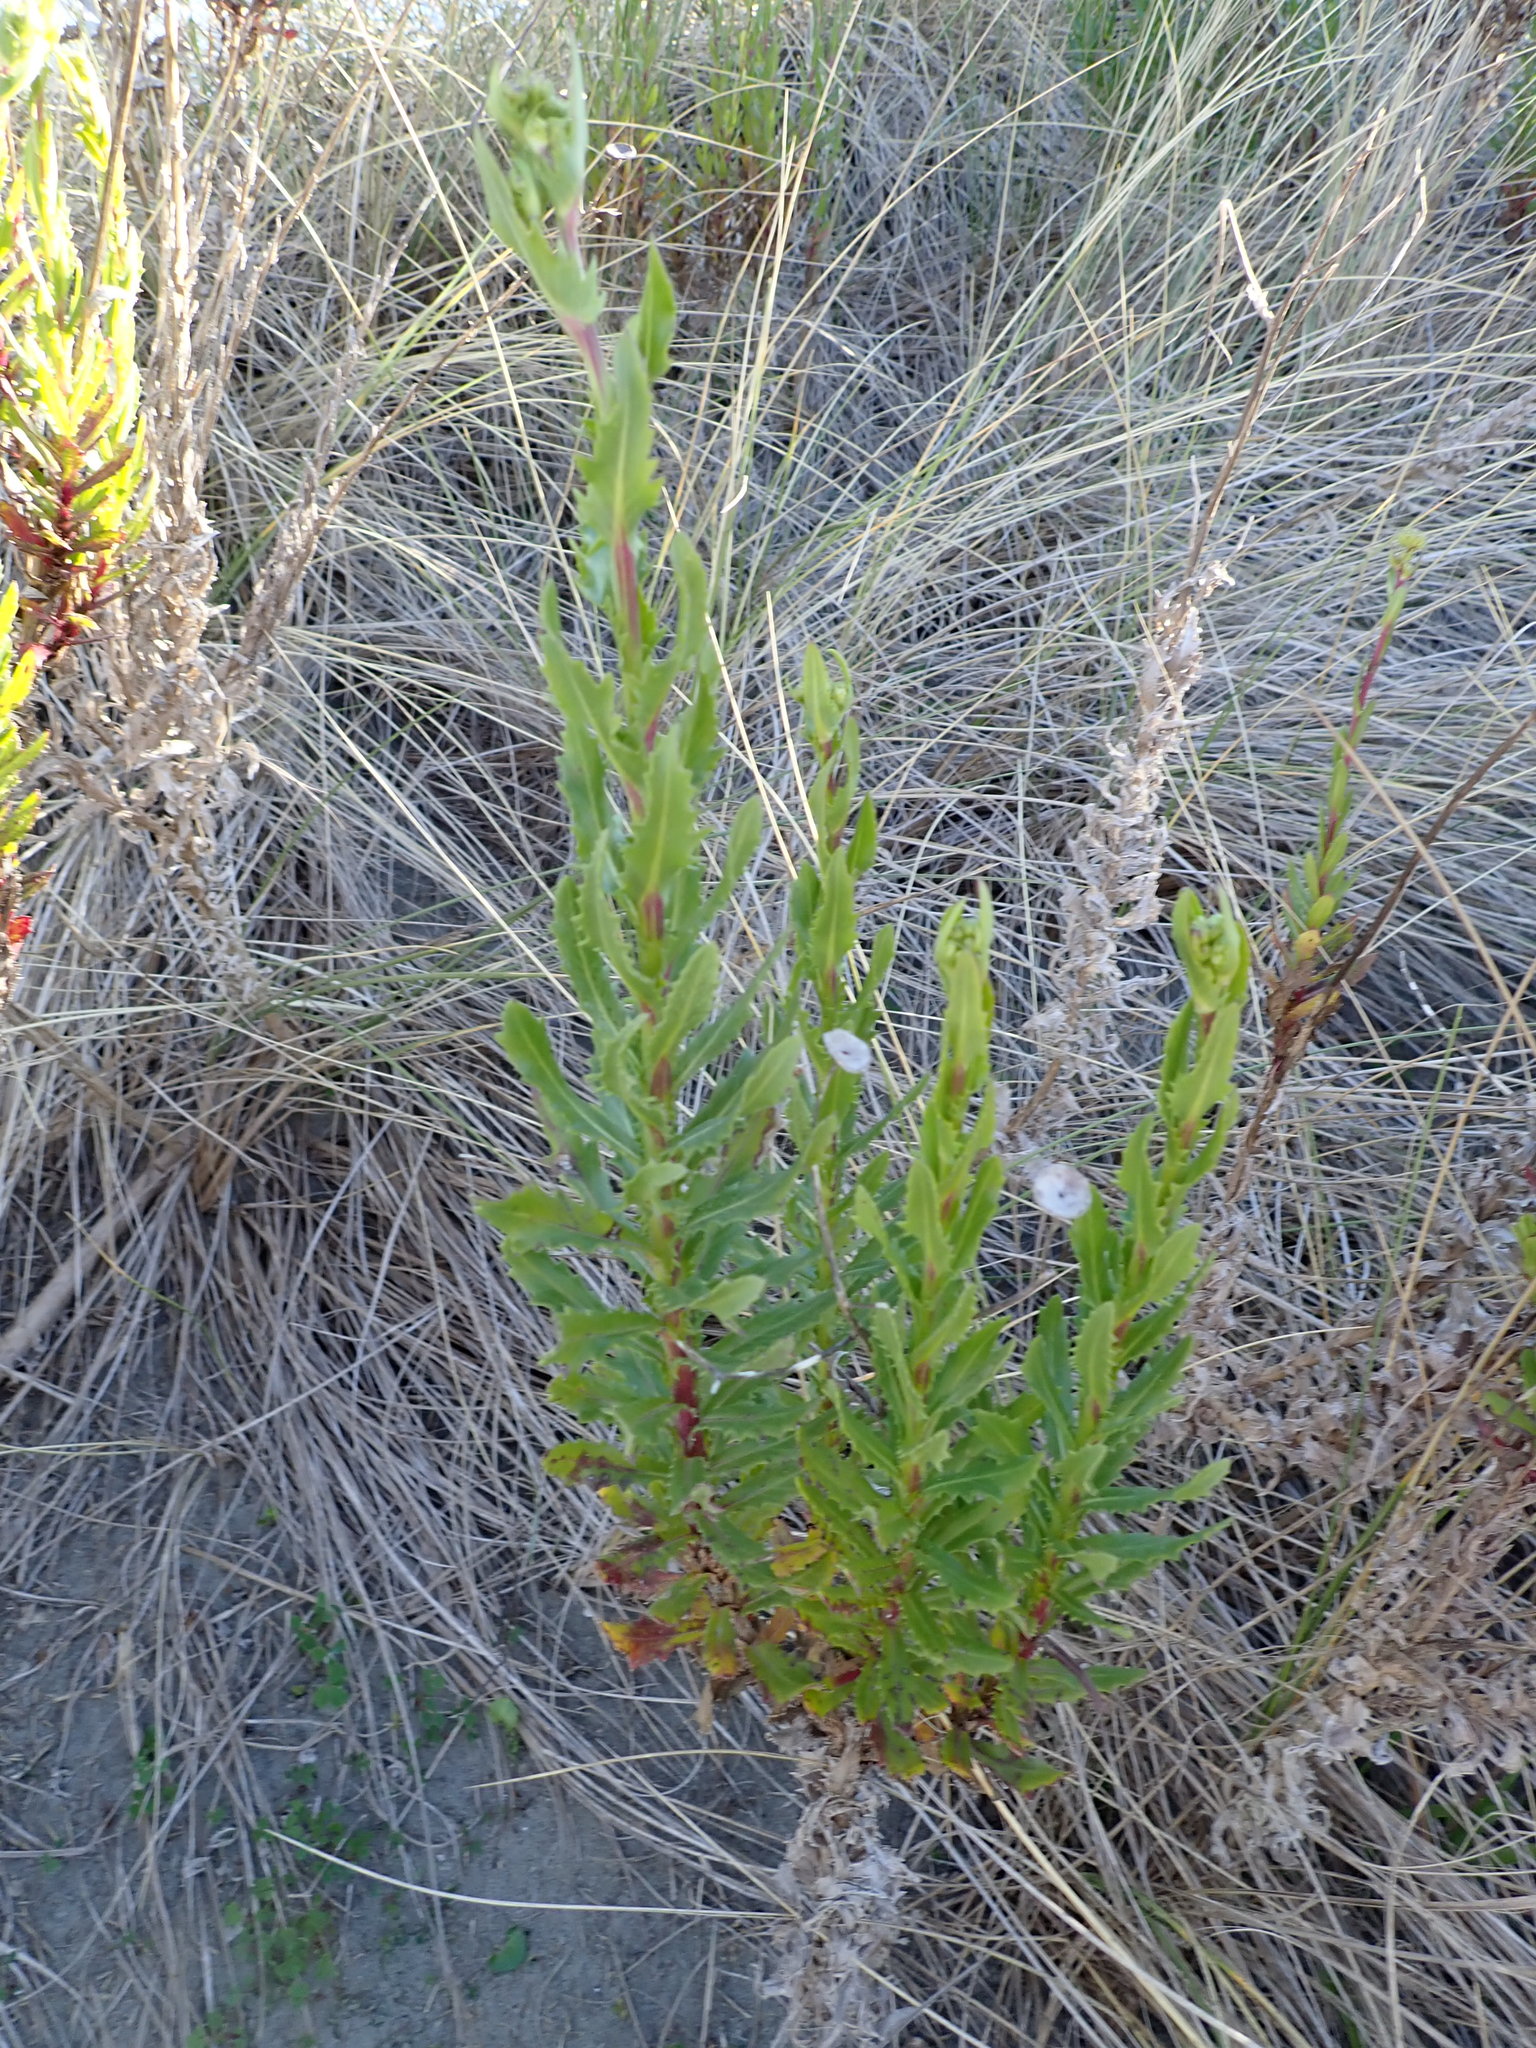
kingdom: Plantae
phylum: Tracheophyta
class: Magnoliopsida
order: Asterales
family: Asteraceae
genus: Senecio
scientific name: Senecio glastifolius
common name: Woad-leaved ragwort
